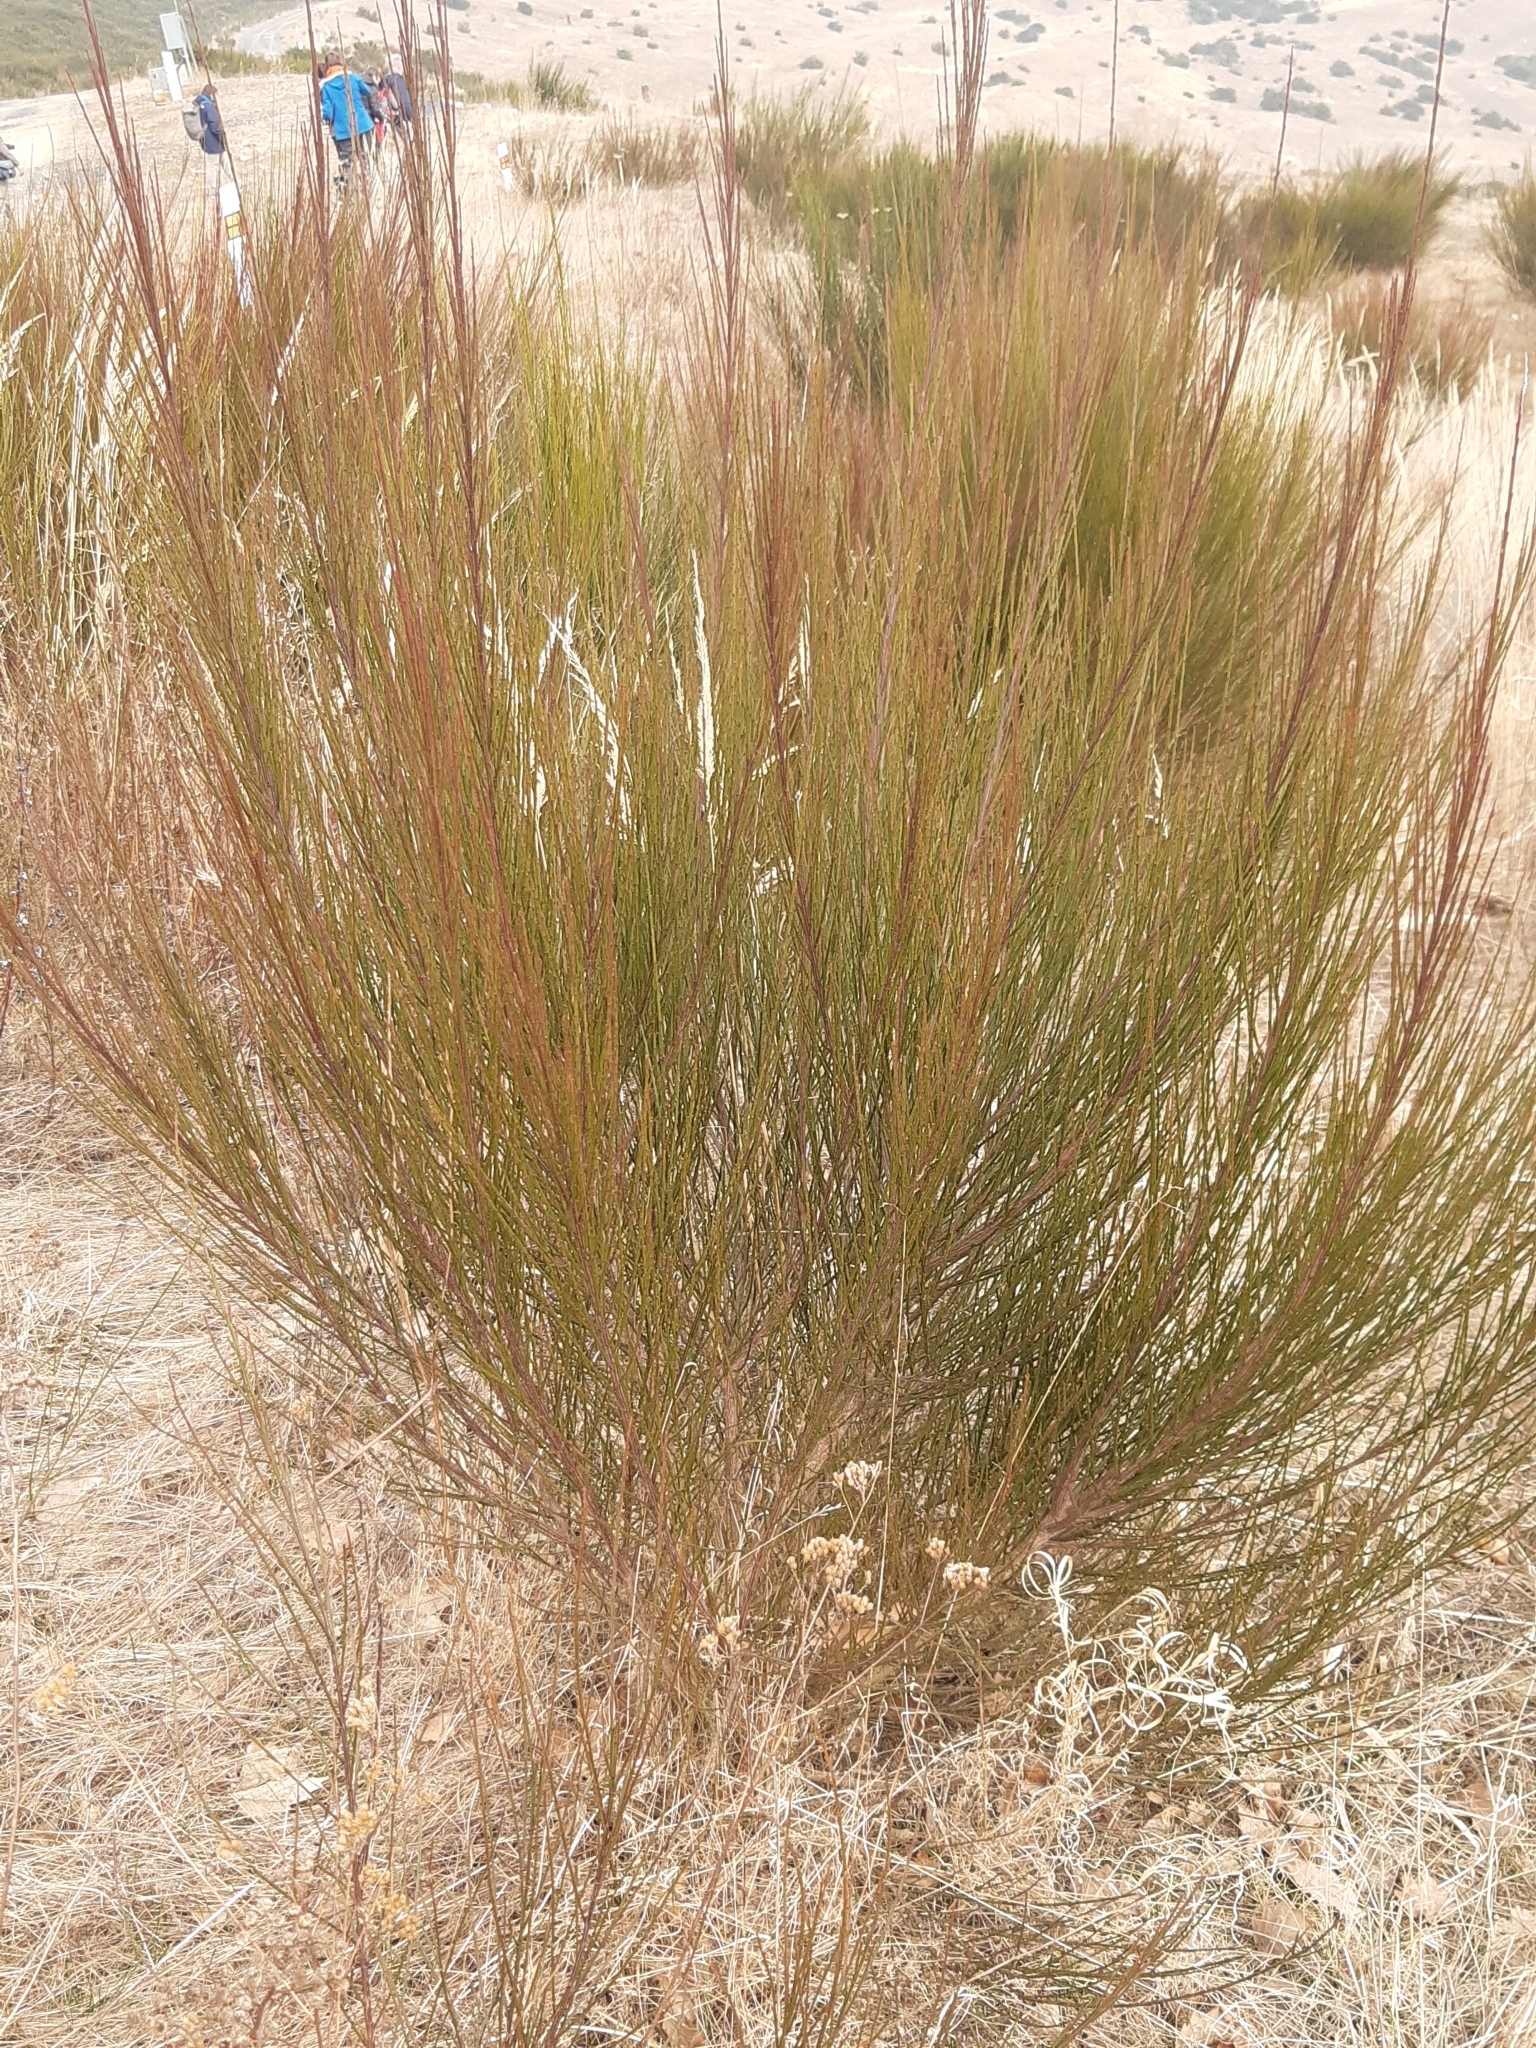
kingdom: Plantae
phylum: Tracheophyta
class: Magnoliopsida
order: Fabales
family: Fabaceae
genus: Cytisus
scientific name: Cytisus scoparius
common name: Scotch broom
